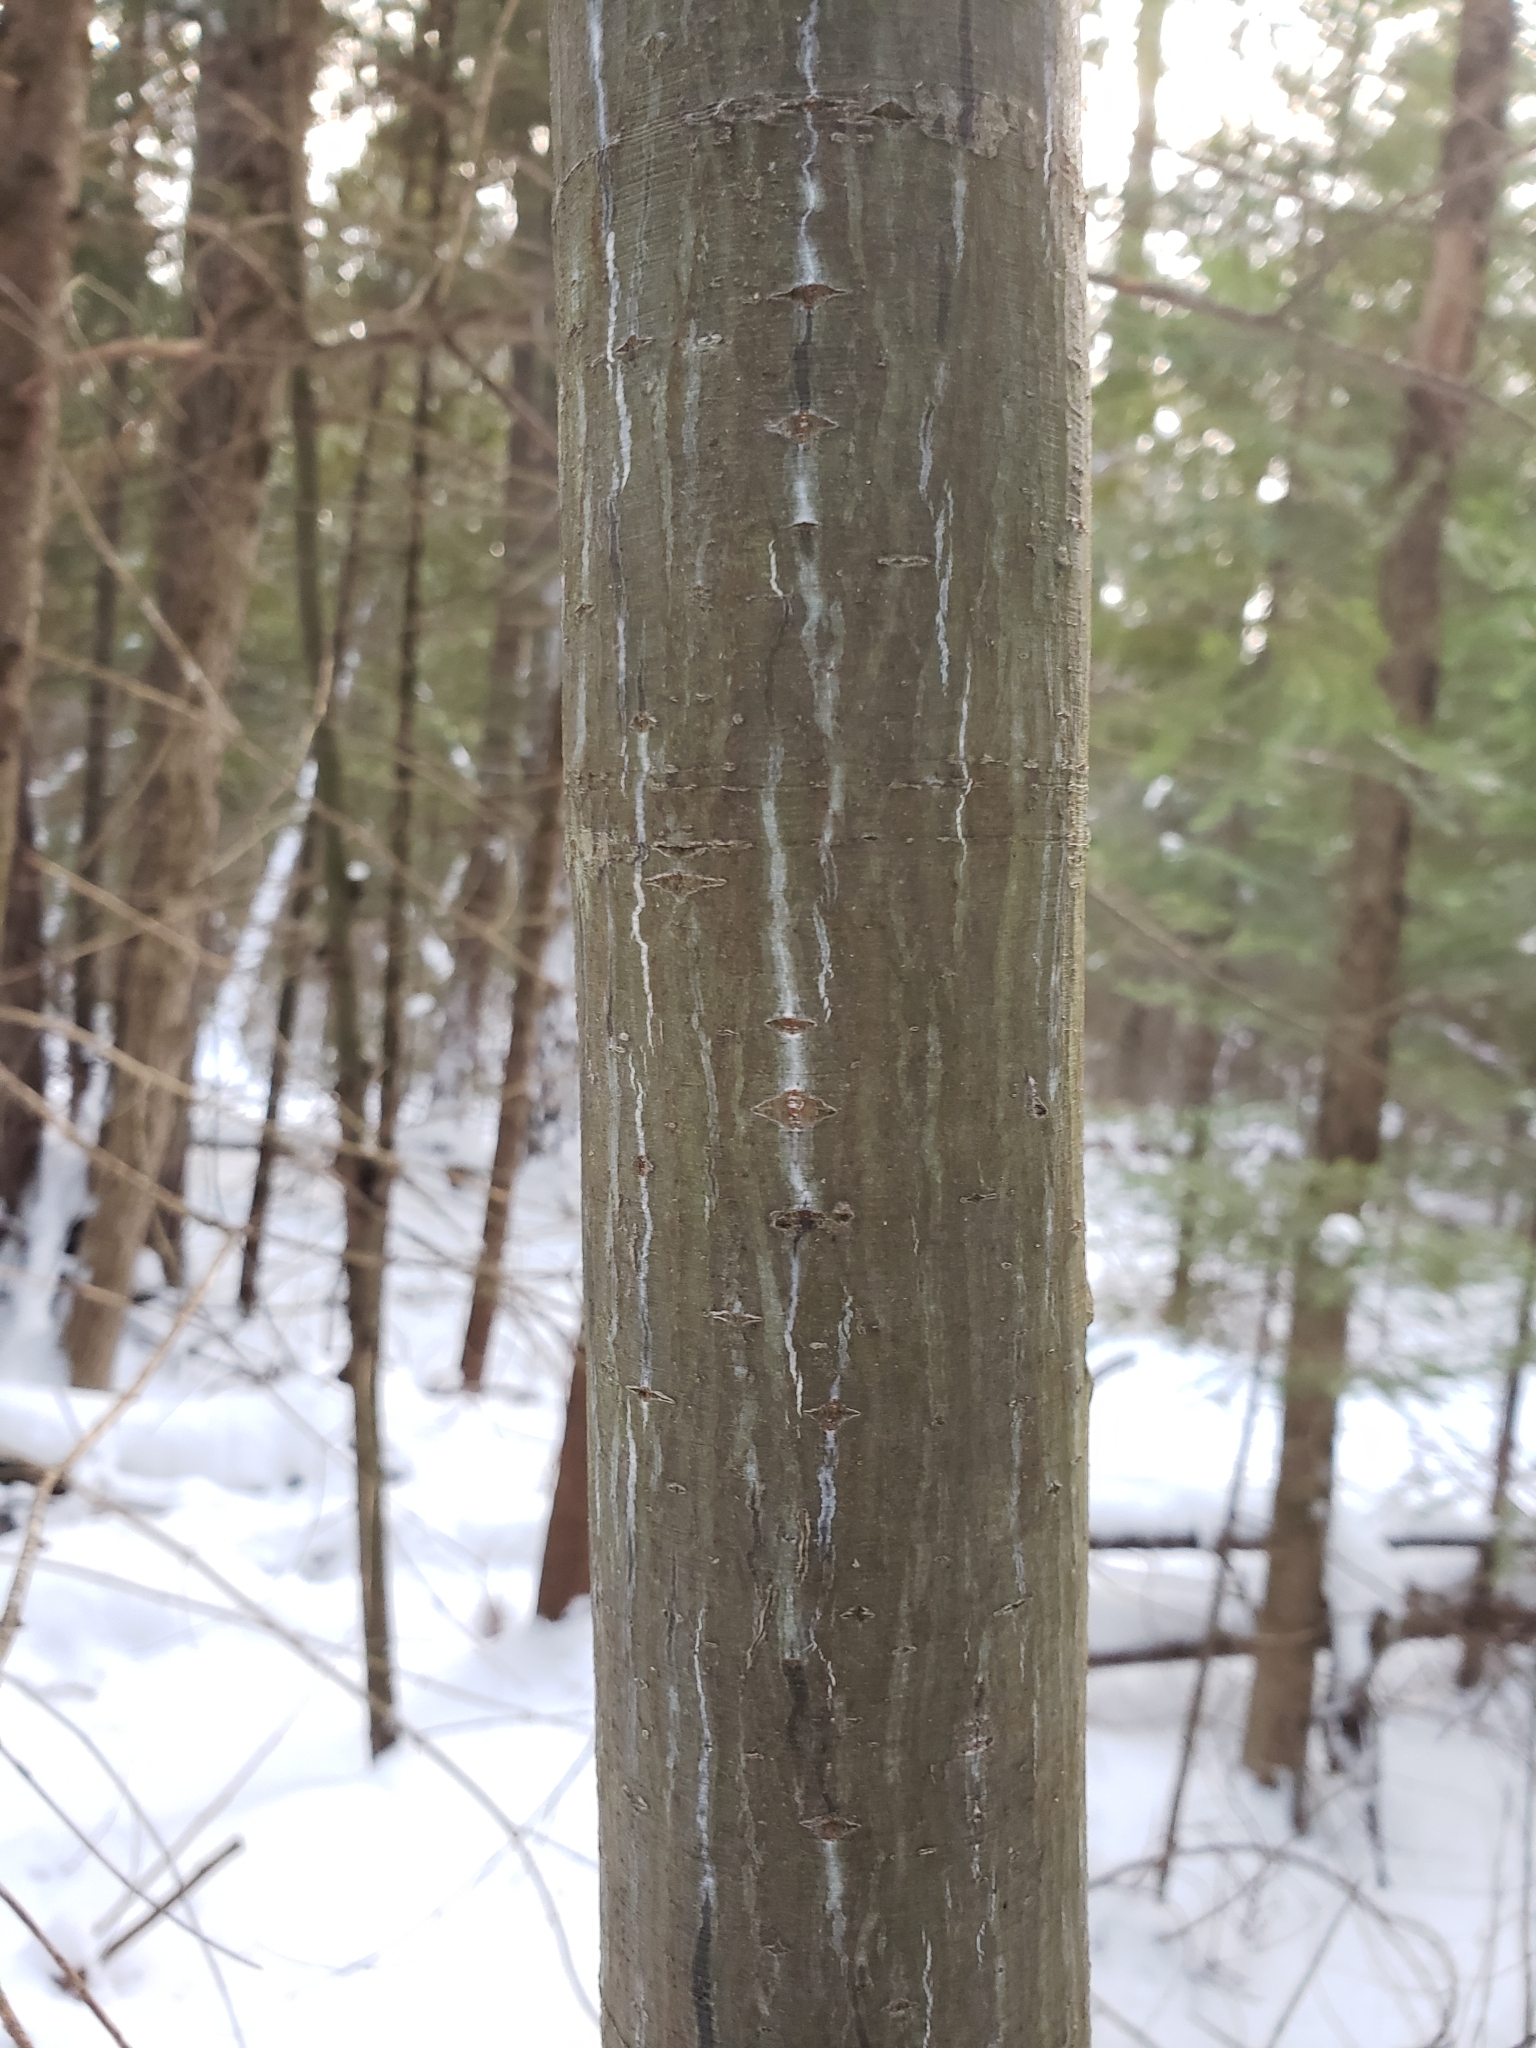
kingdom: Plantae
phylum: Tracheophyta
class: Magnoliopsida
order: Sapindales
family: Sapindaceae
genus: Acer
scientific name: Acer pensylvanicum
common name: Moosewood
